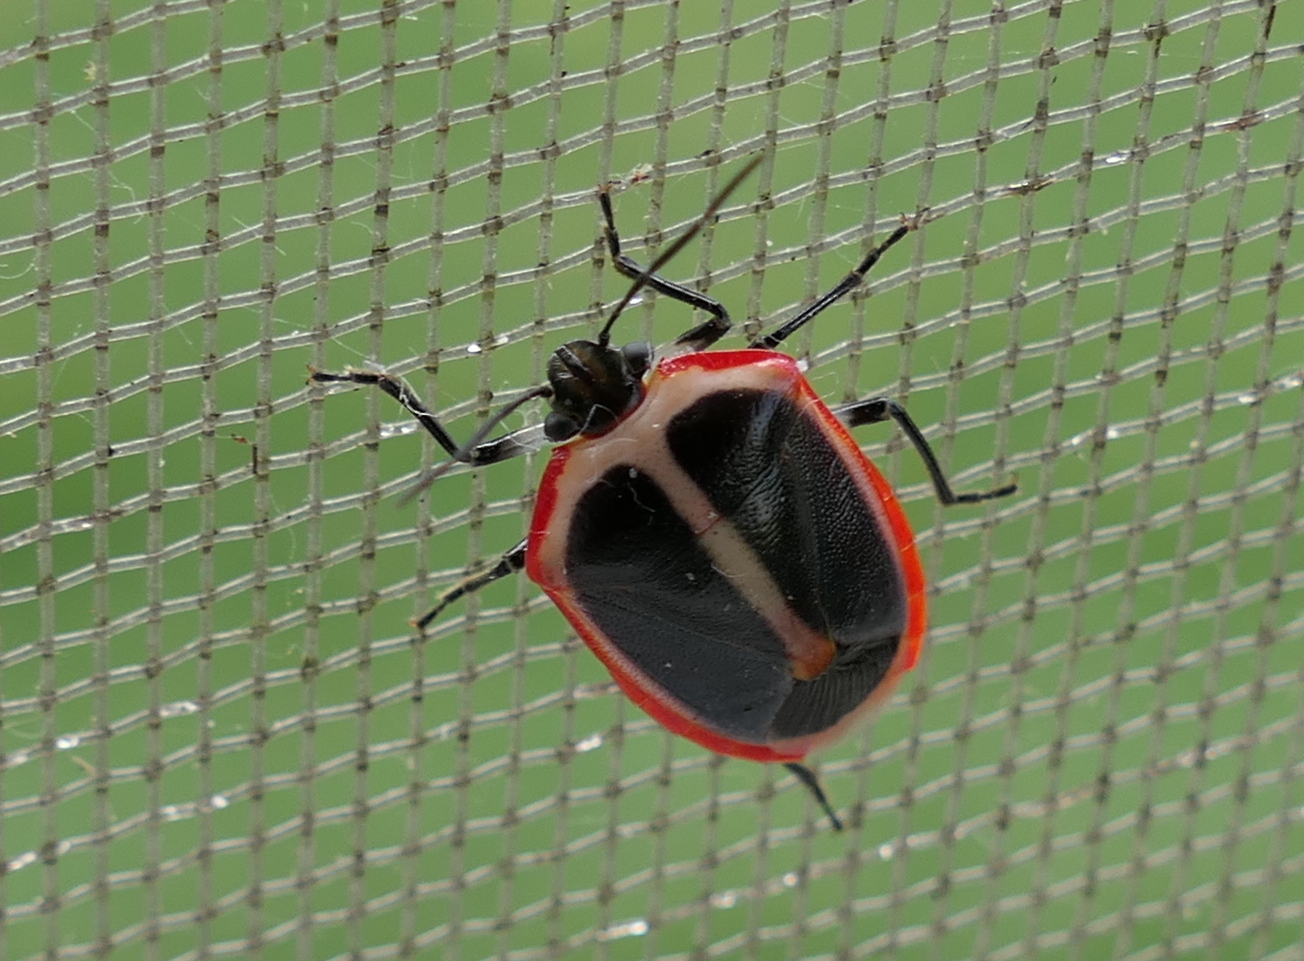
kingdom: Animalia
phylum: Arthropoda
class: Insecta
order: Hemiptera
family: Pentatomidae
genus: Roferta
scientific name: Roferta marginalis
